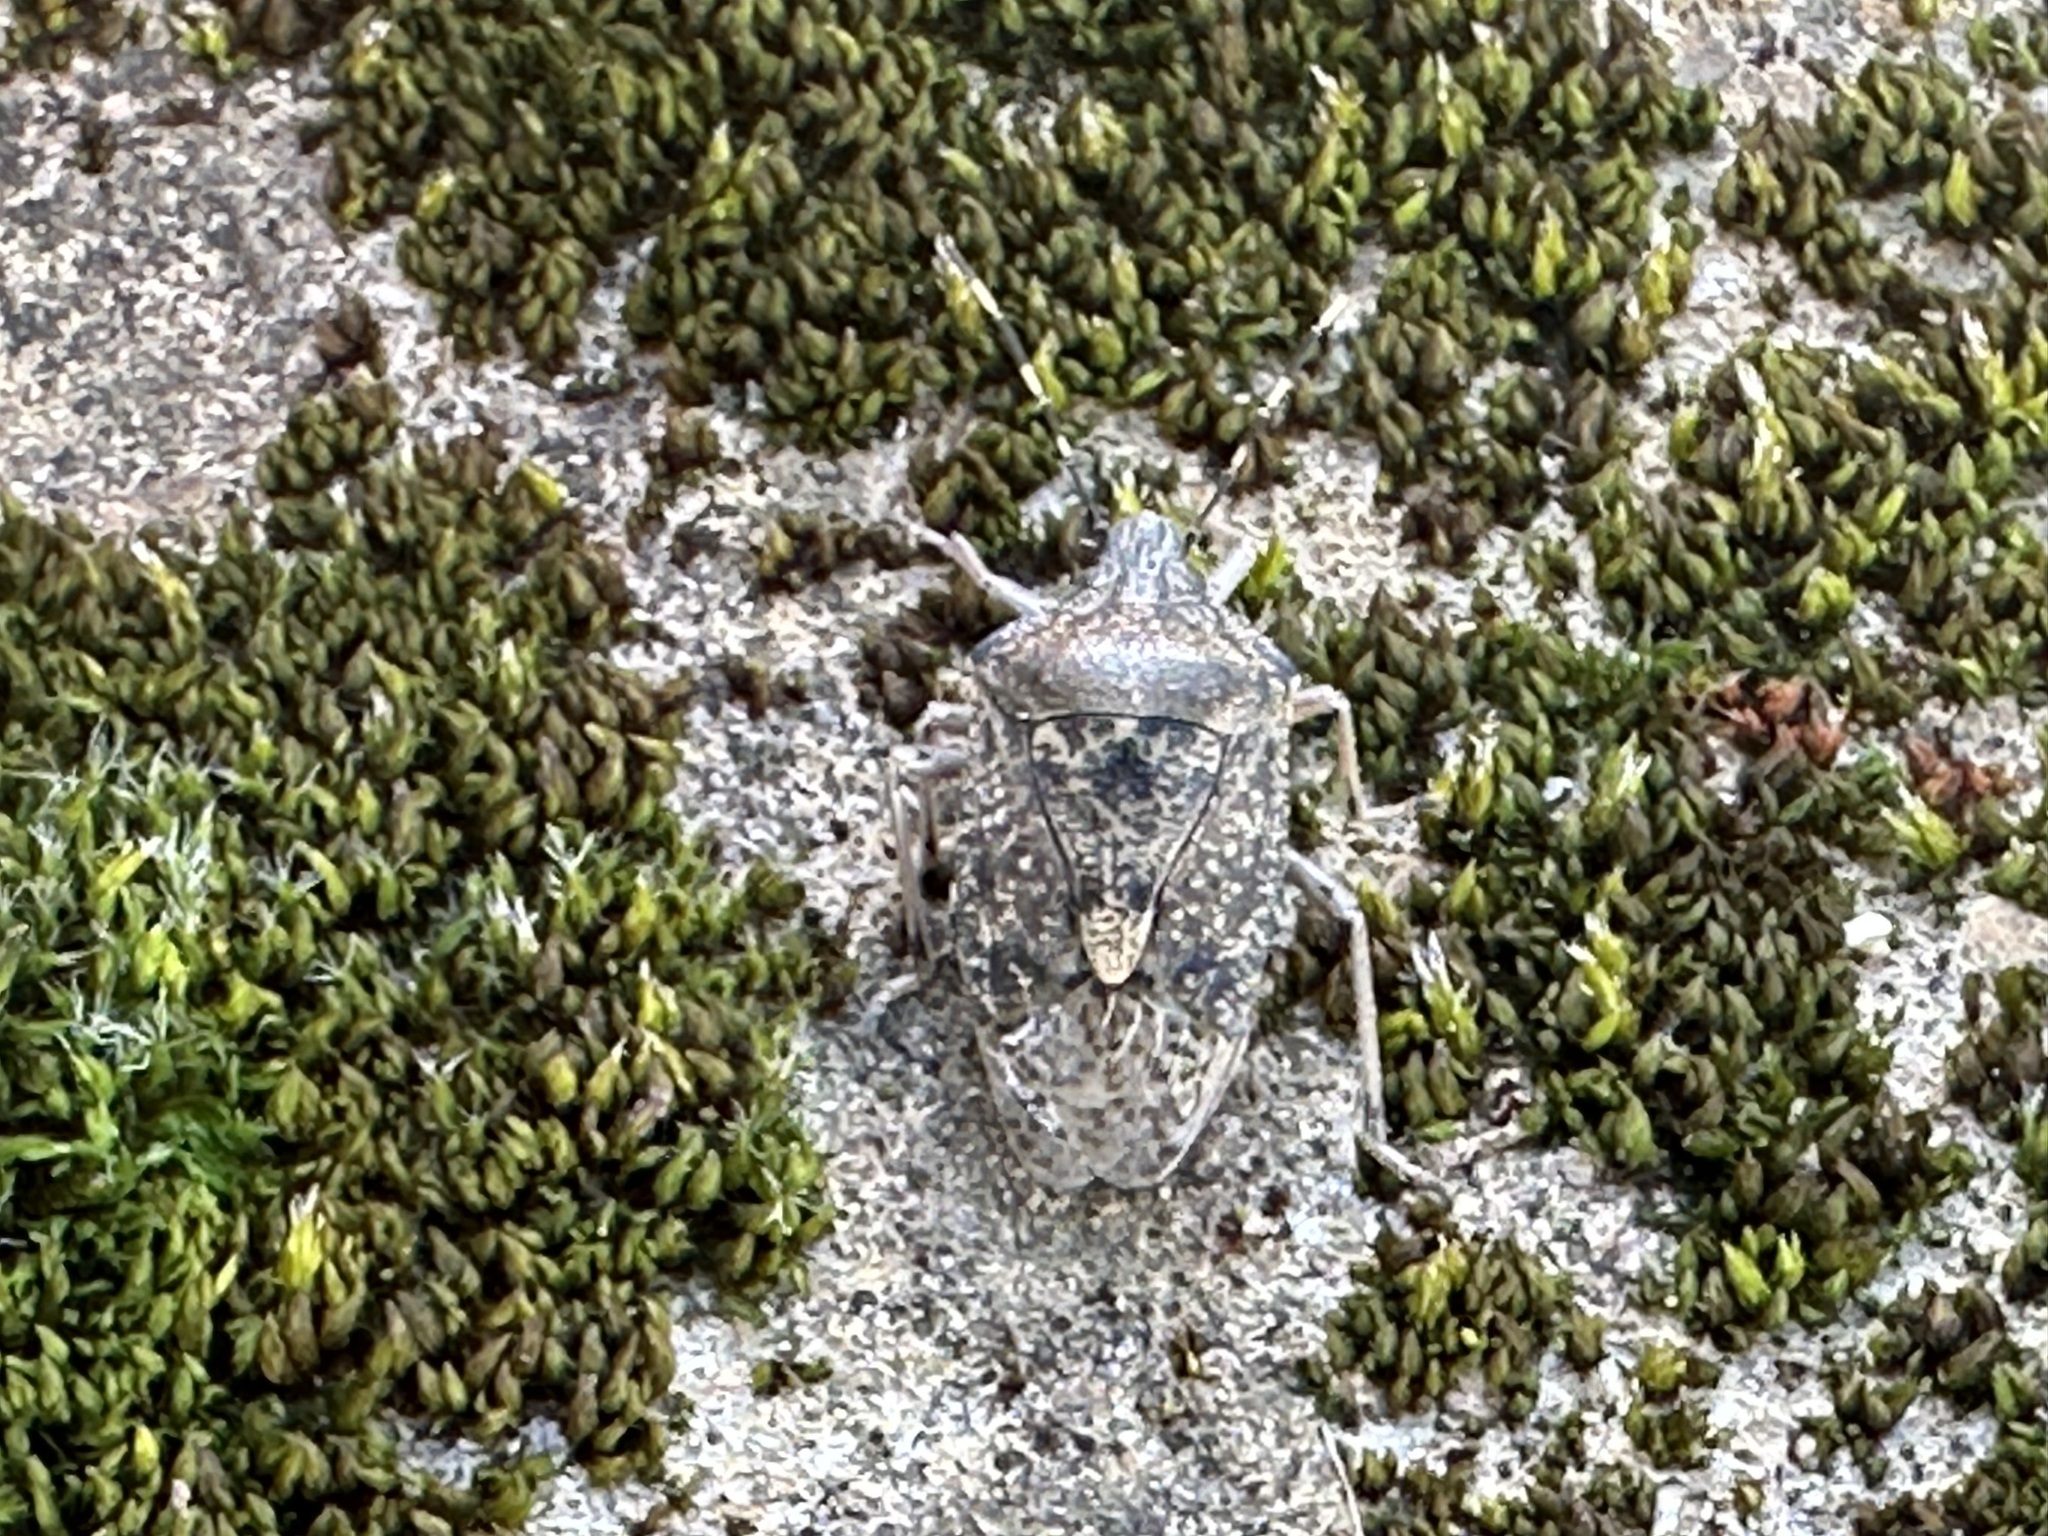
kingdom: Animalia
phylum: Arthropoda
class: Insecta
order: Hemiptera
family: Pentatomidae
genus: Rhaphigaster
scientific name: Rhaphigaster nebulosa
